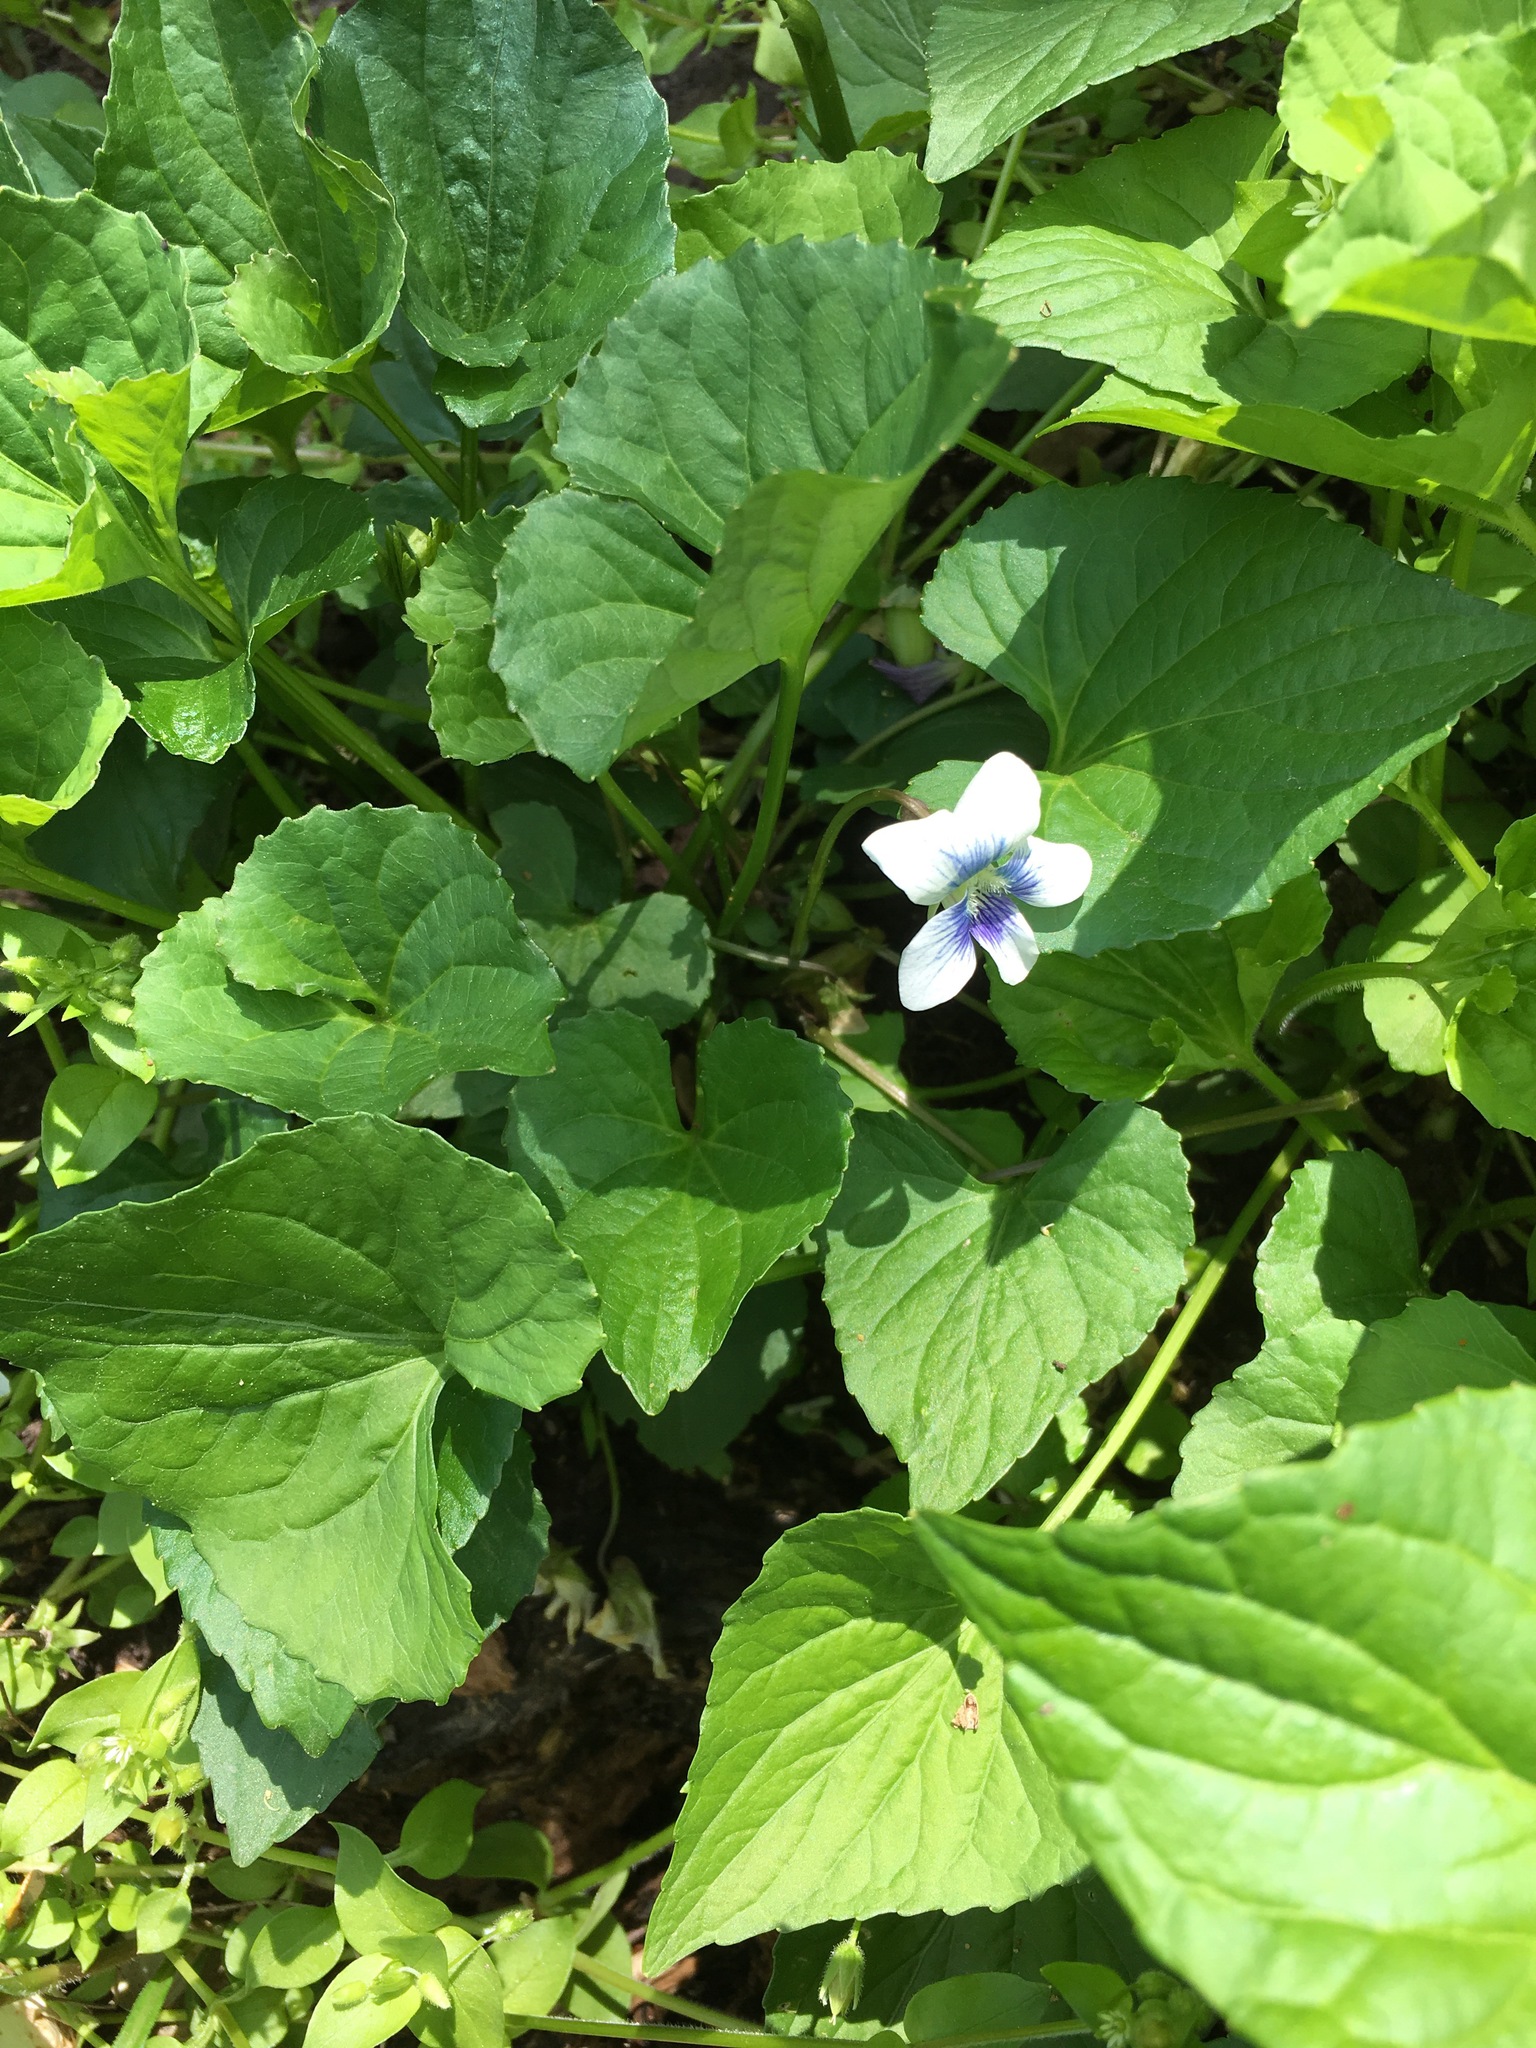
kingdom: Plantae
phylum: Tracheophyta
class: Magnoliopsida
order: Malpighiales
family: Violaceae
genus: Viola
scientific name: Viola sororia
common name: Dooryard violet
